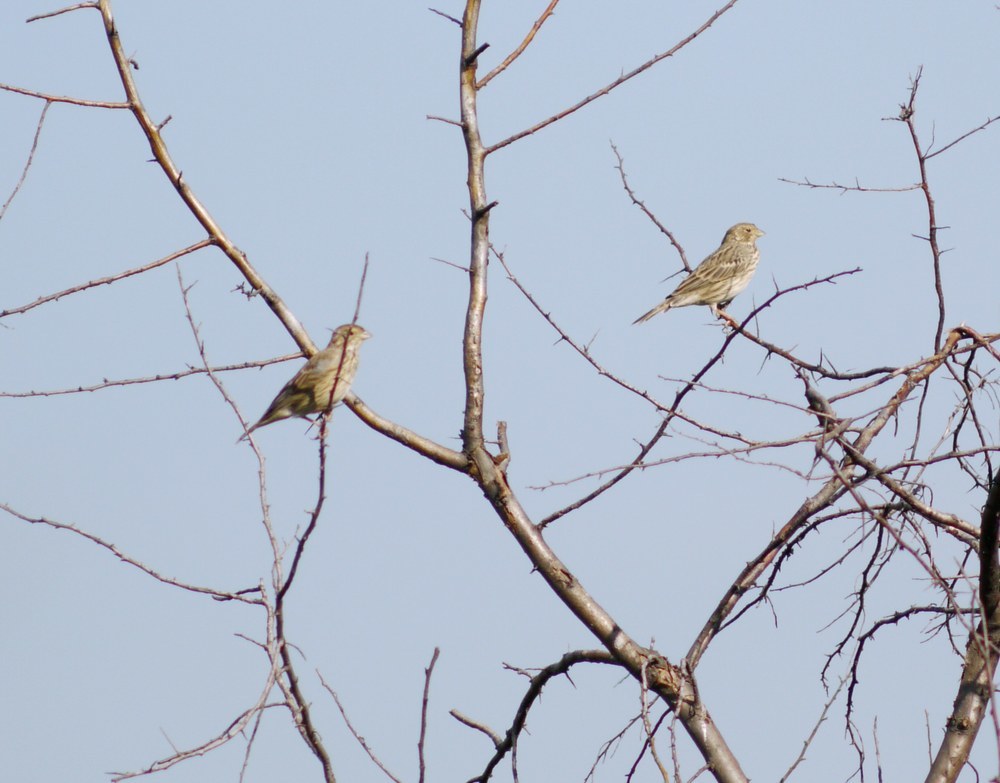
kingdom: Animalia
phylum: Chordata
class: Aves
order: Passeriformes
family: Emberizidae
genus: Emberiza
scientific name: Emberiza calandra
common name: Corn bunting
